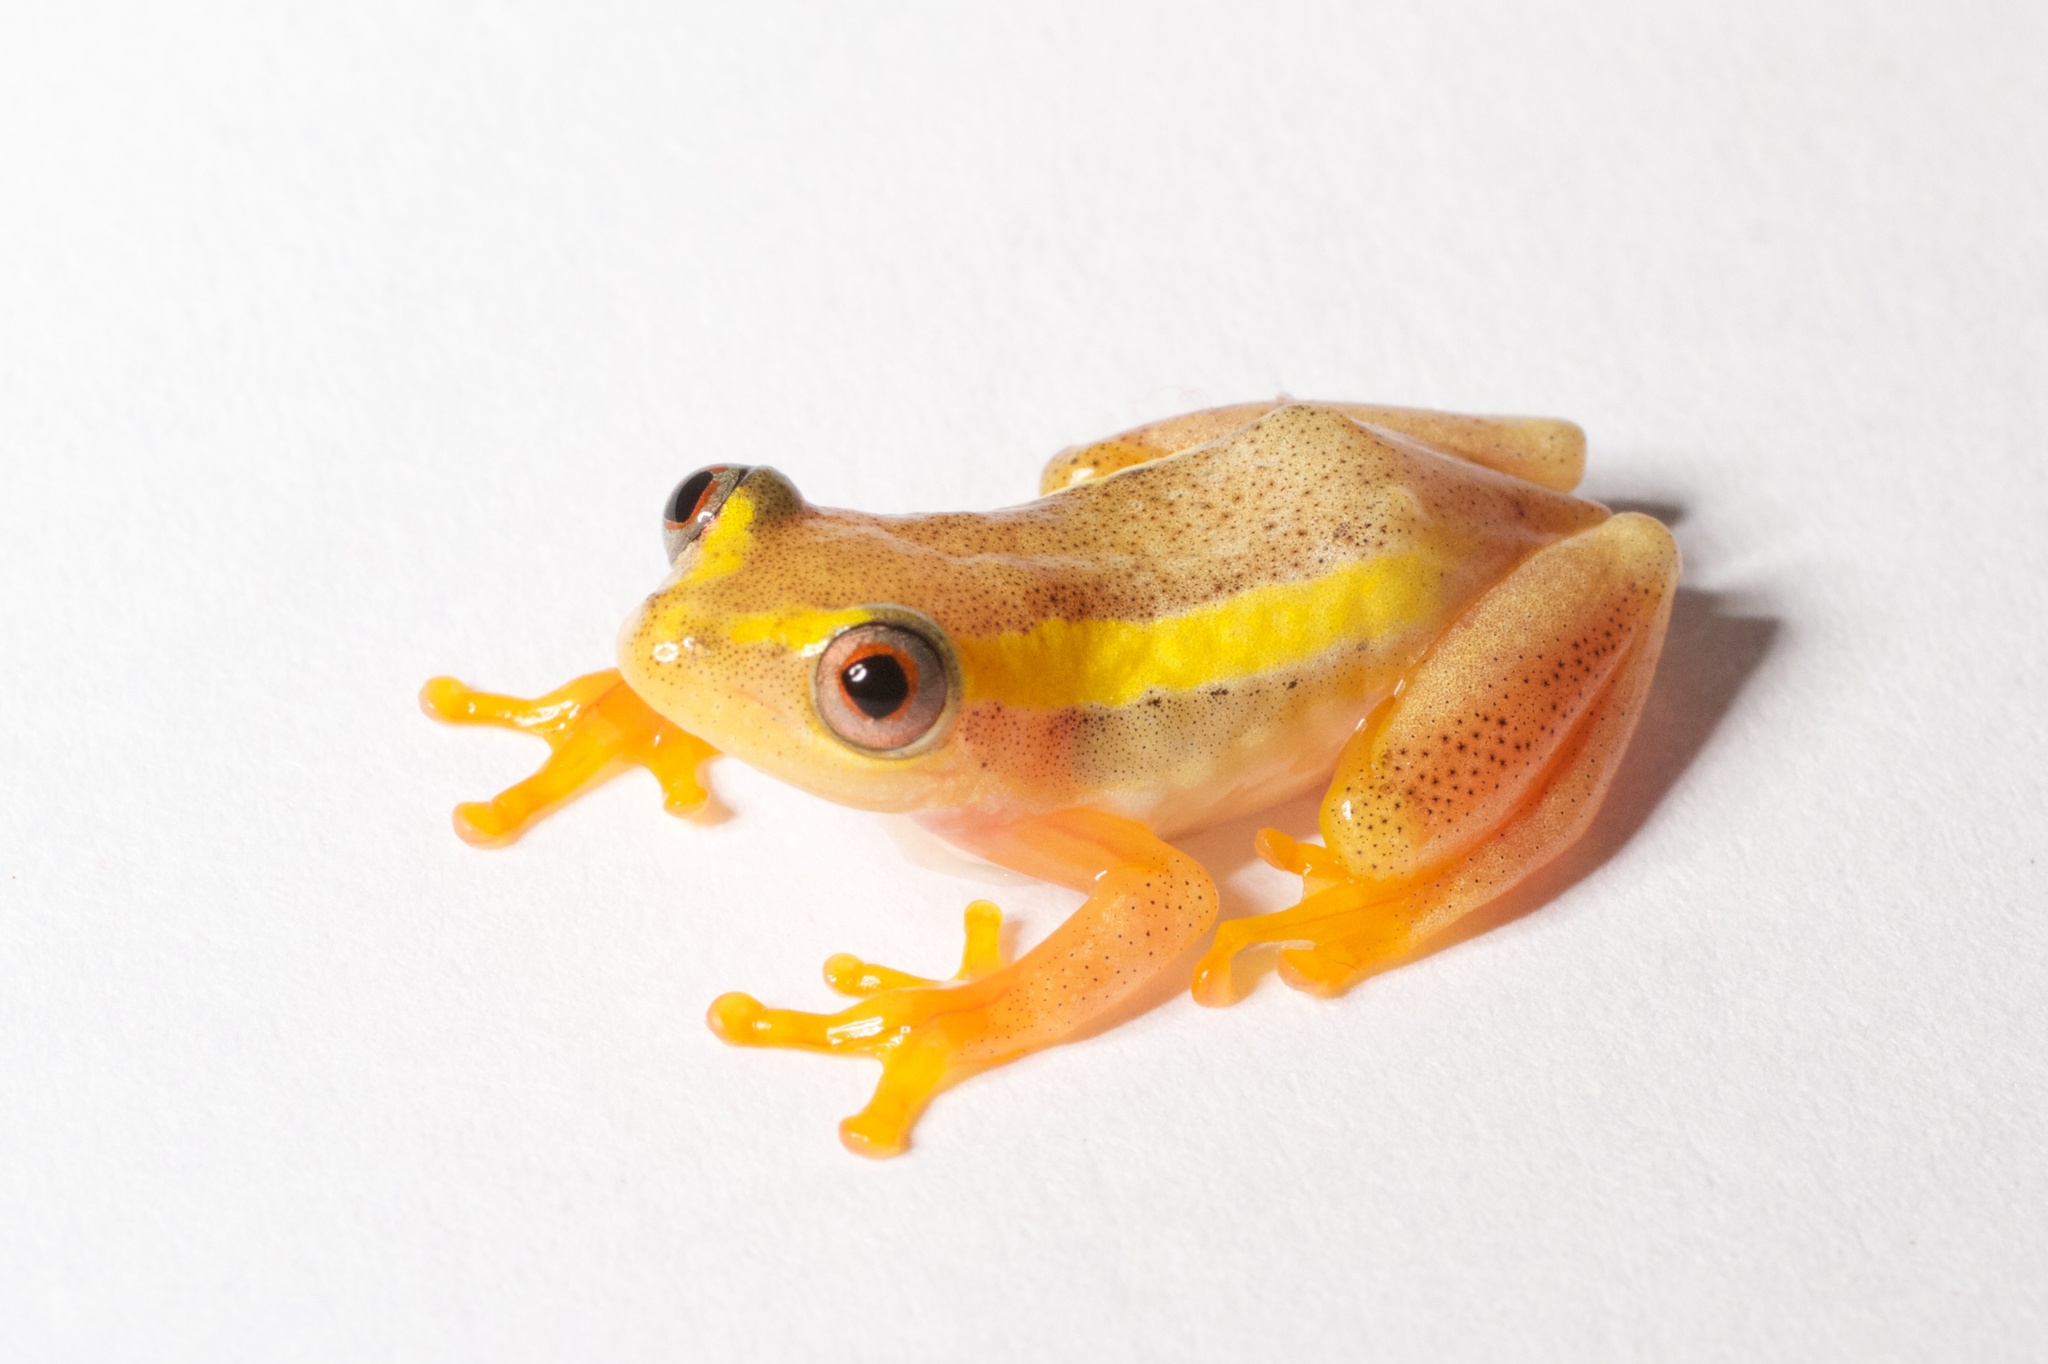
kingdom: Animalia
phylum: Chordata
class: Amphibia
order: Anura
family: Hyperoliidae
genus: Heterixalus
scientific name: Heterixalus betsileo
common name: Betsileo reed frog
